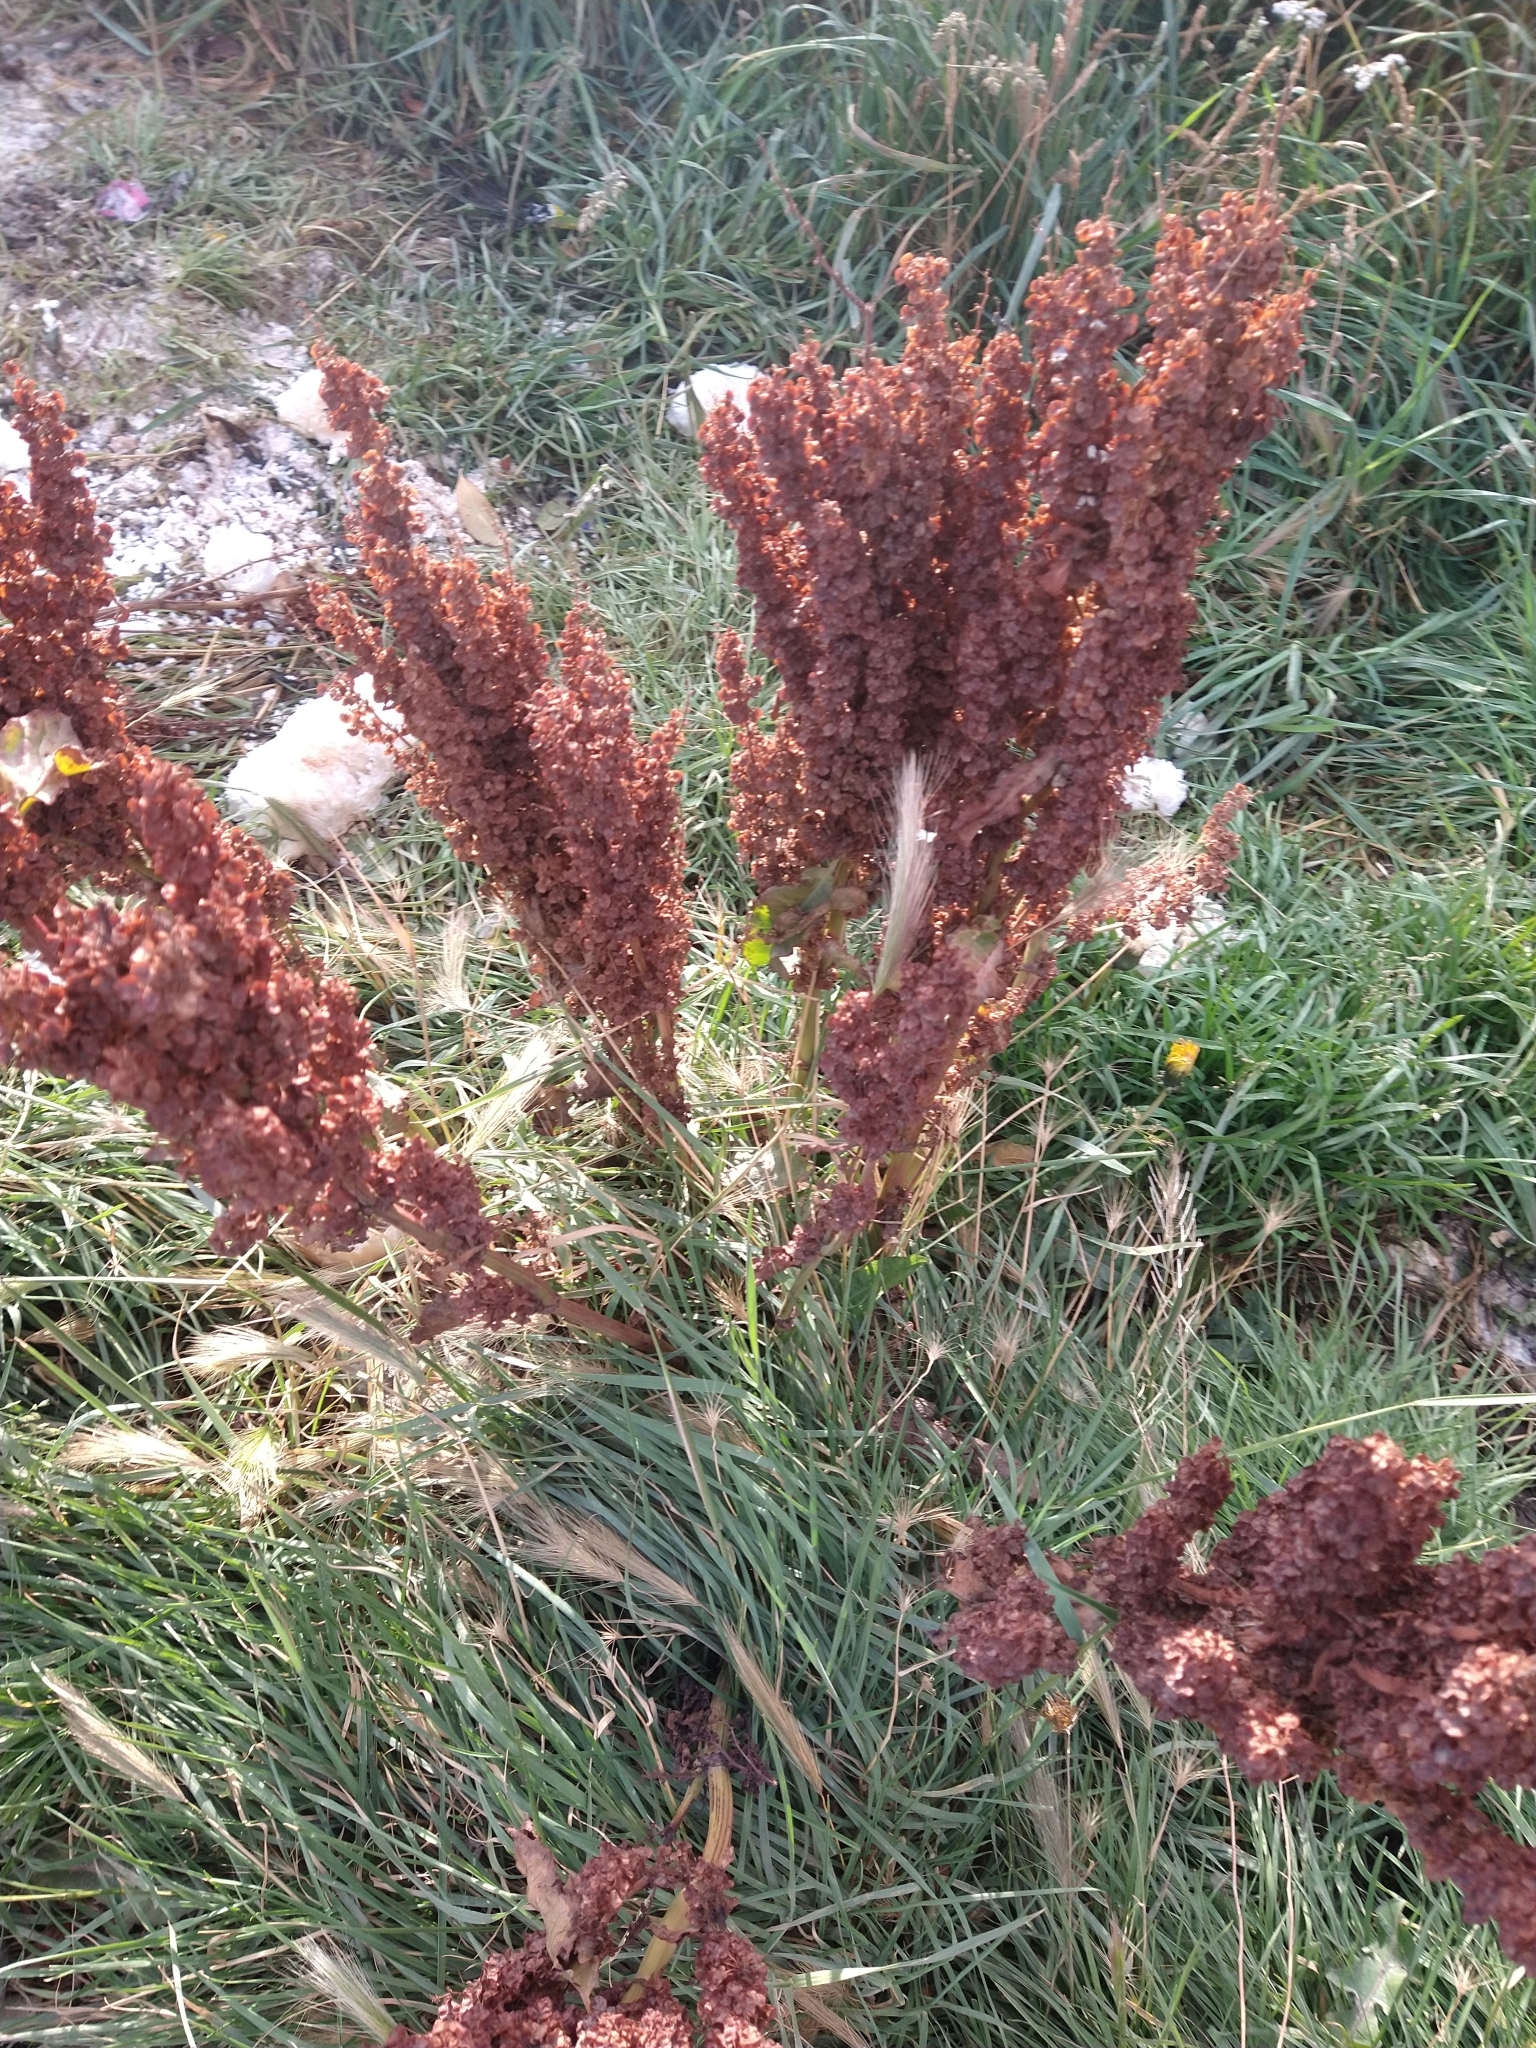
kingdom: Plantae
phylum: Tracheophyta
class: Magnoliopsida
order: Caryophyllales
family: Polygonaceae
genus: Rumex
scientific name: Rumex crispus
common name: Curled dock
